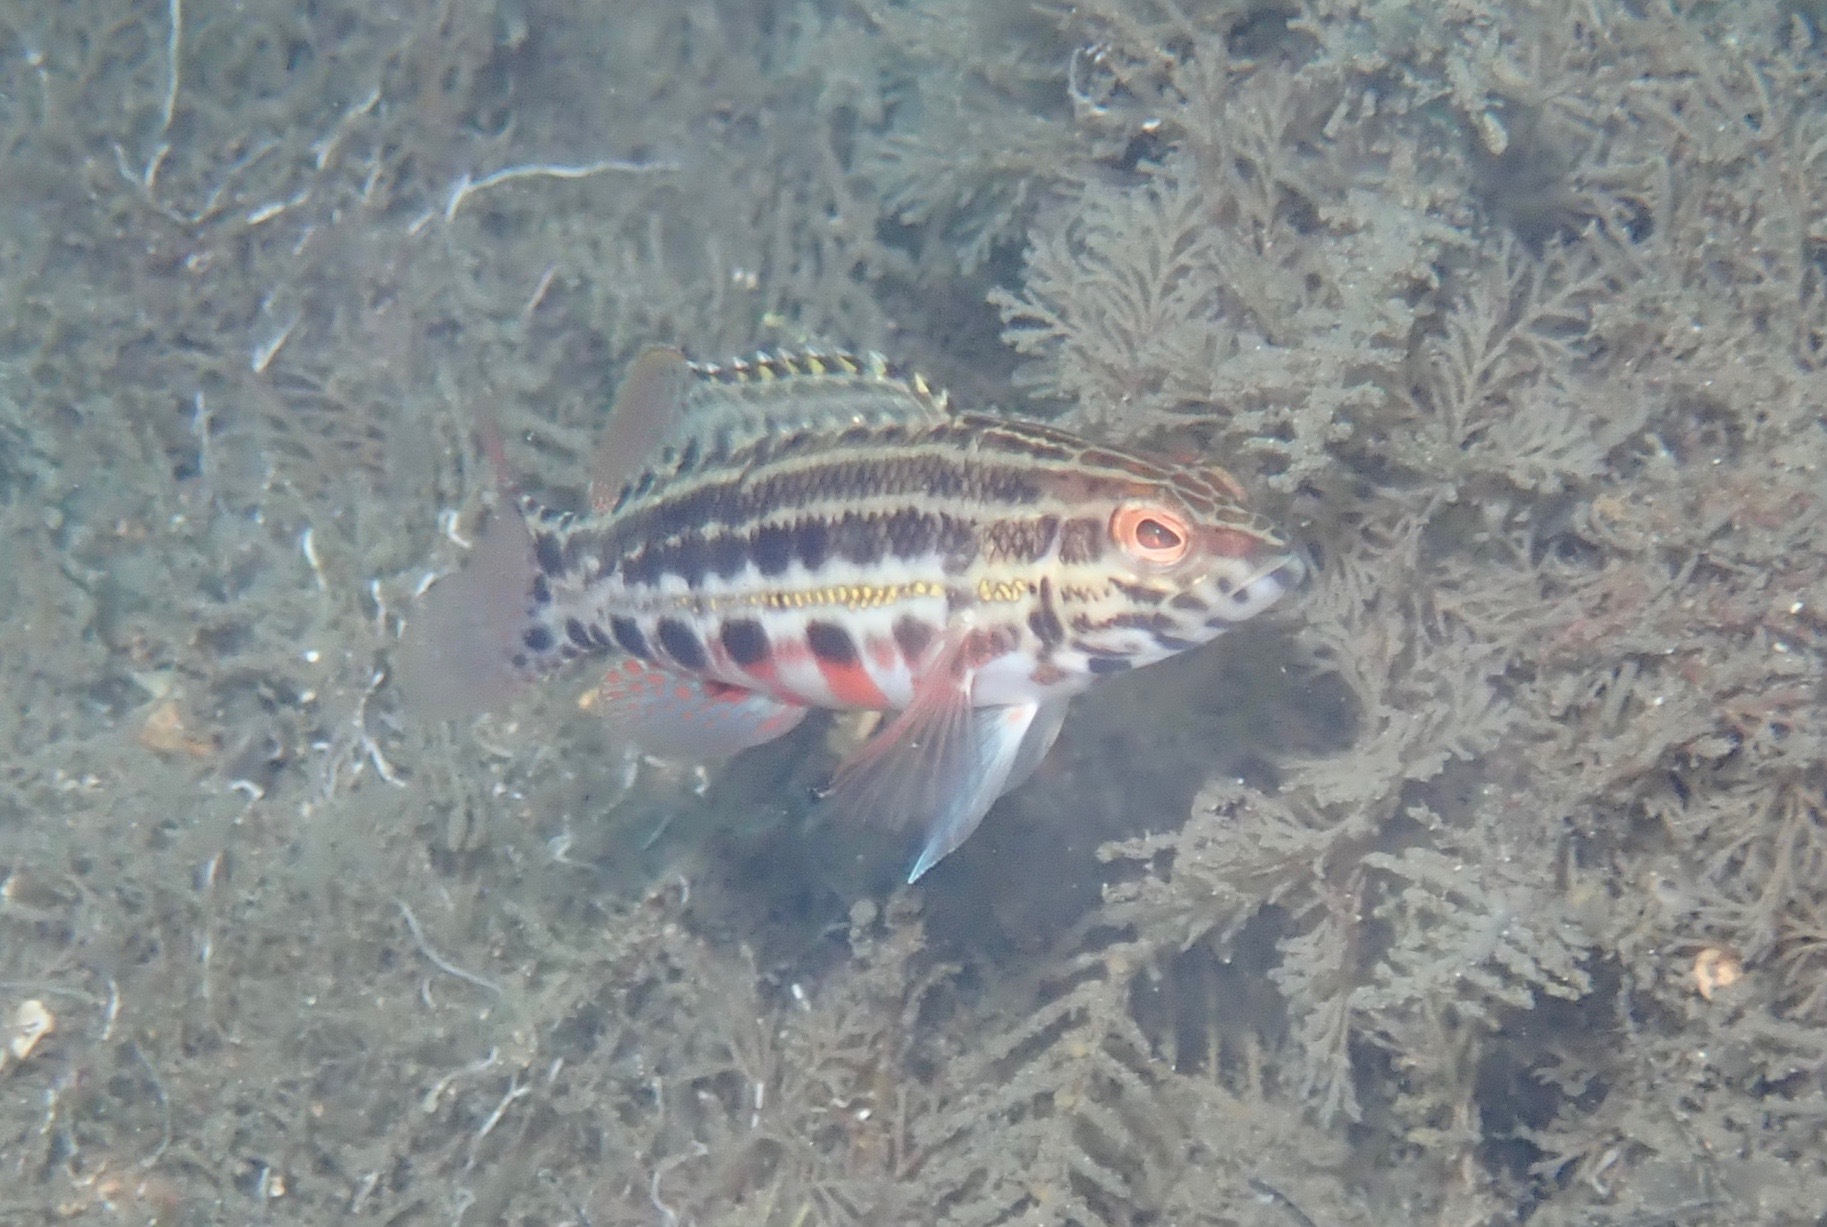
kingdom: Animalia
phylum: Chordata
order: Perciformes
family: Serranidae
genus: Serranus
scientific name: Serranus baldwini
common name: Lantern bass
